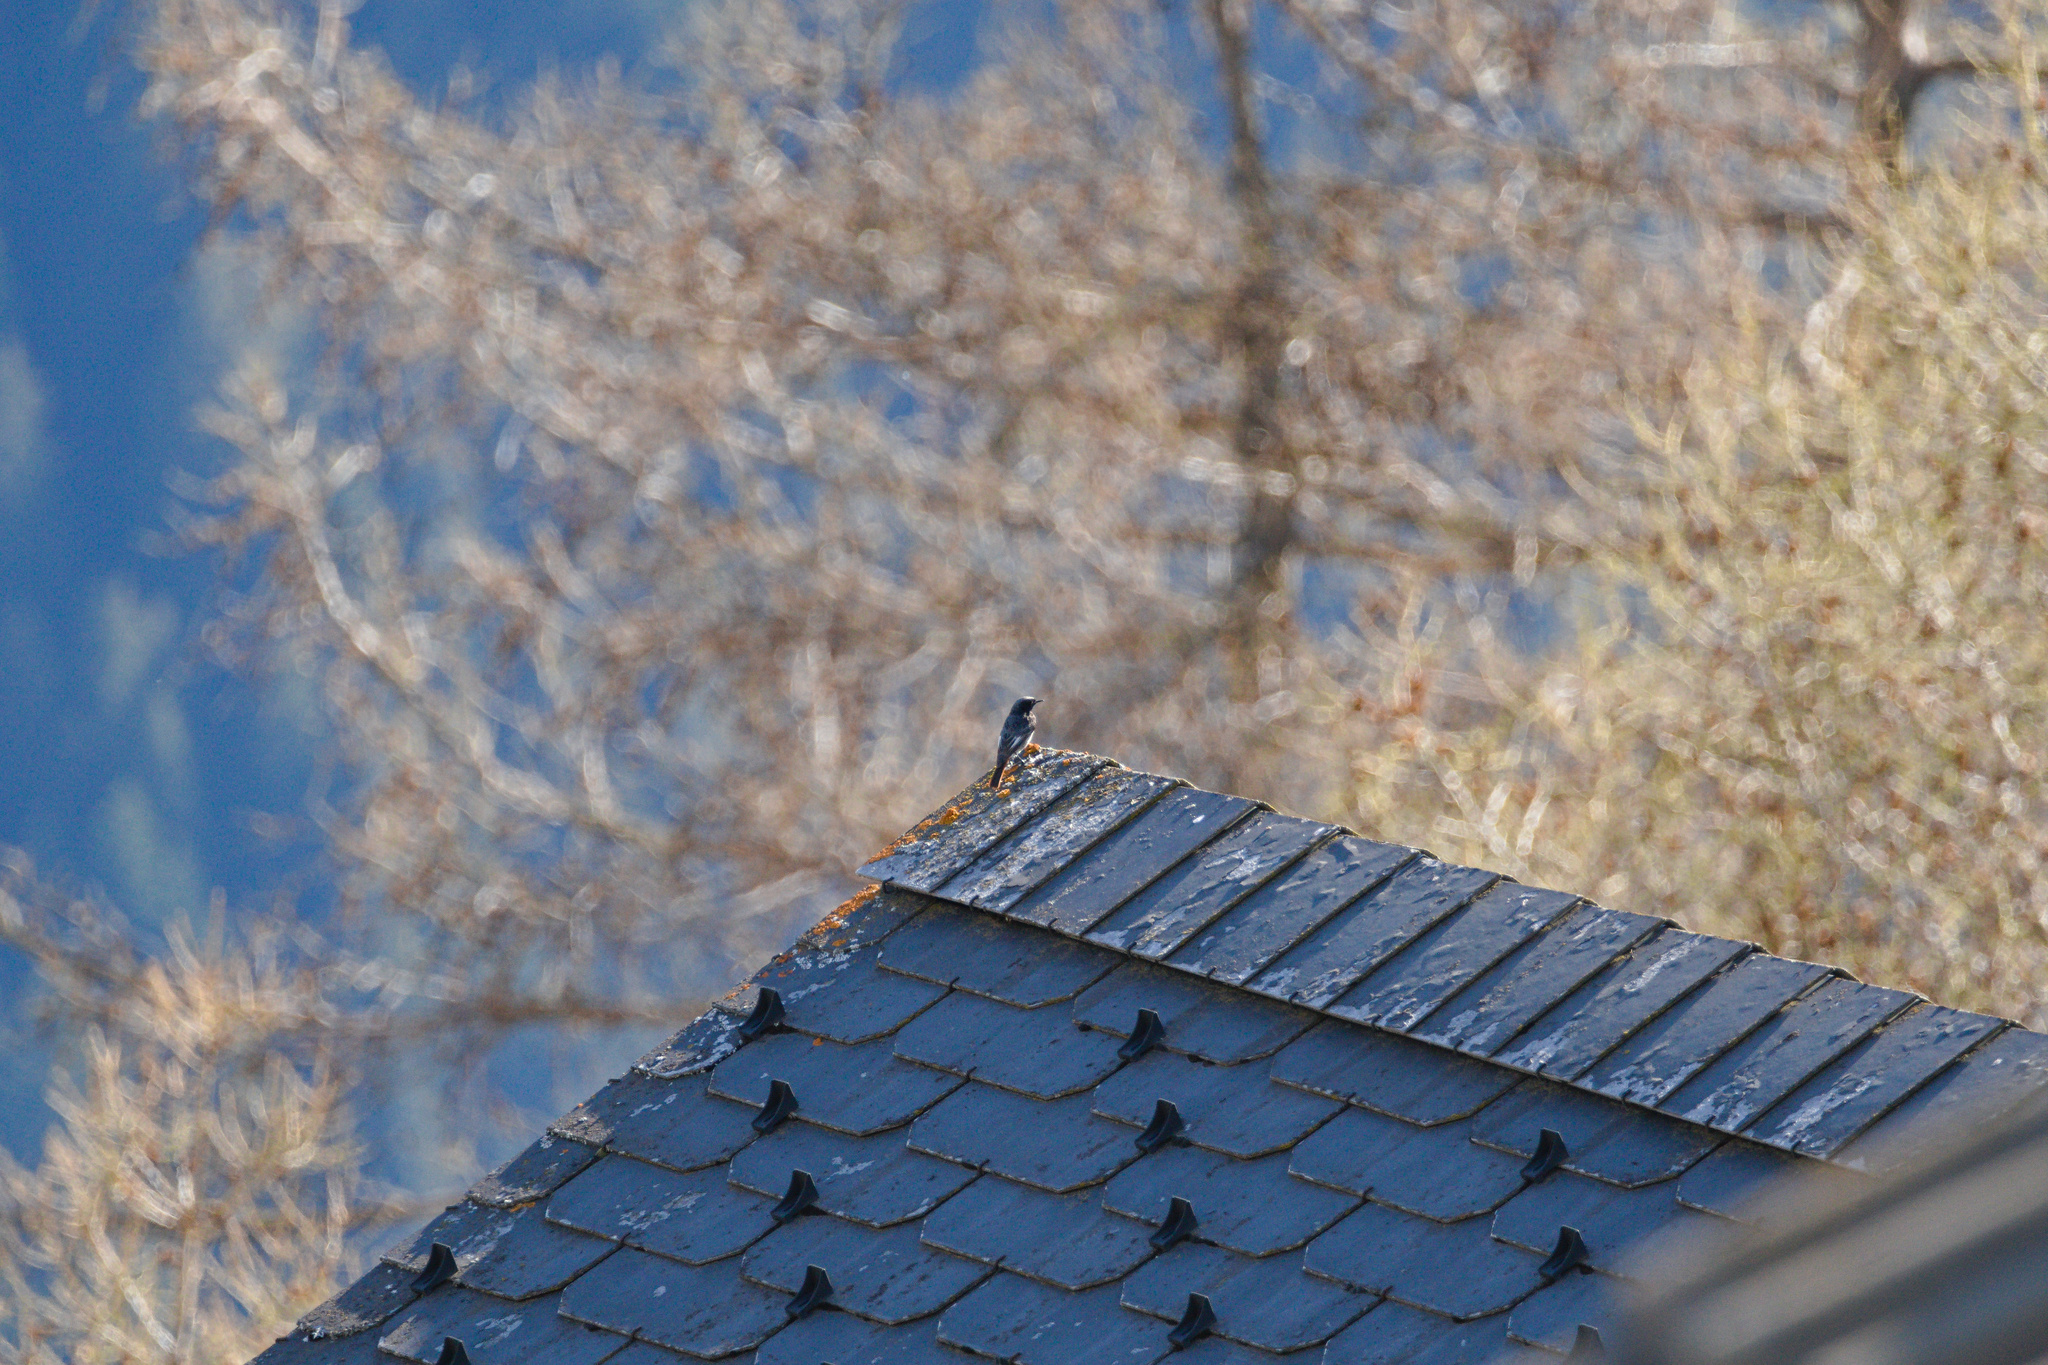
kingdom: Animalia
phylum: Chordata
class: Aves
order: Passeriformes
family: Muscicapidae
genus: Phoenicurus
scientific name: Phoenicurus ochruros
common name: Black redstart
